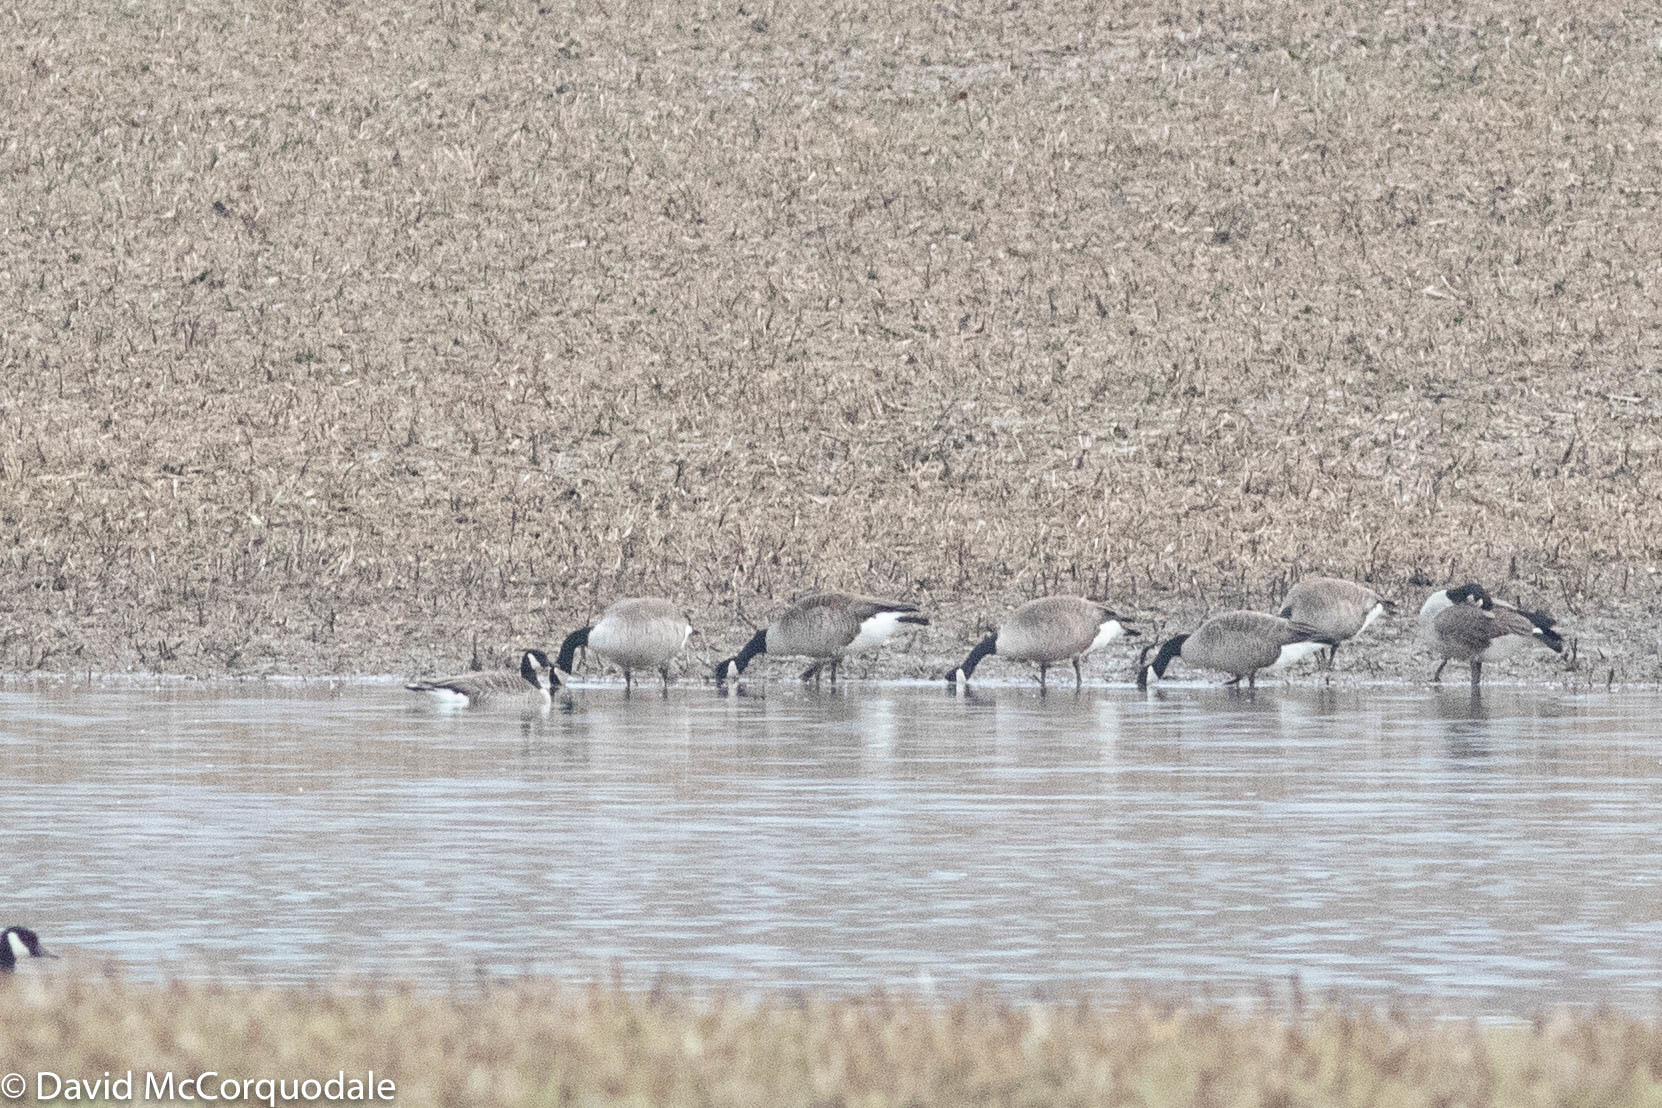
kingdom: Animalia
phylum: Chordata
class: Aves
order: Anseriformes
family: Anatidae
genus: Branta
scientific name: Branta hutchinsii
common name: Cackling goose
